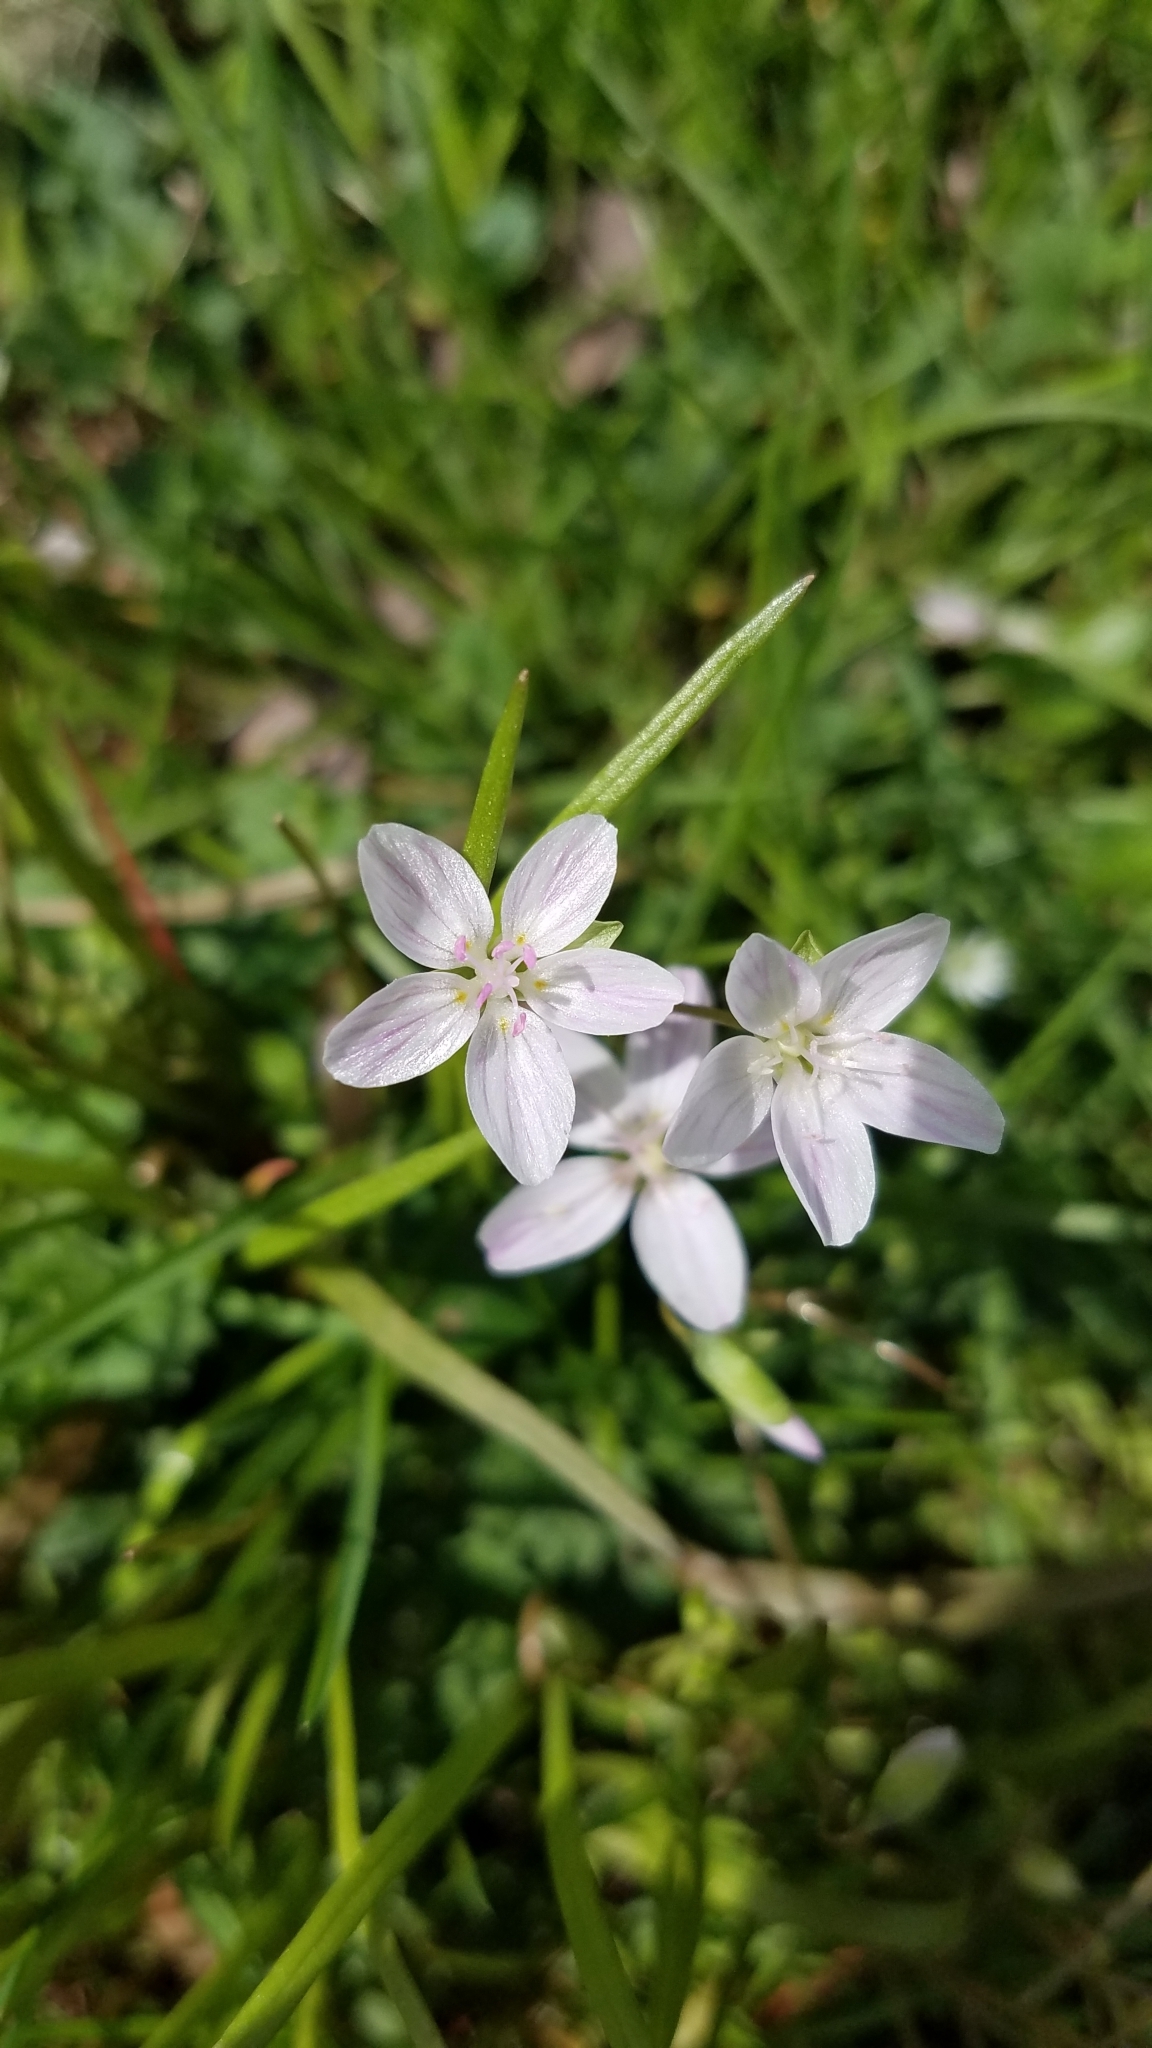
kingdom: Plantae
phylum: Tracheophyta
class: Magnoliopsida
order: Caryophyllales
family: Montiaceae
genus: Claytonia
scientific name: Claytonia virginica
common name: Virginia springbeauty
